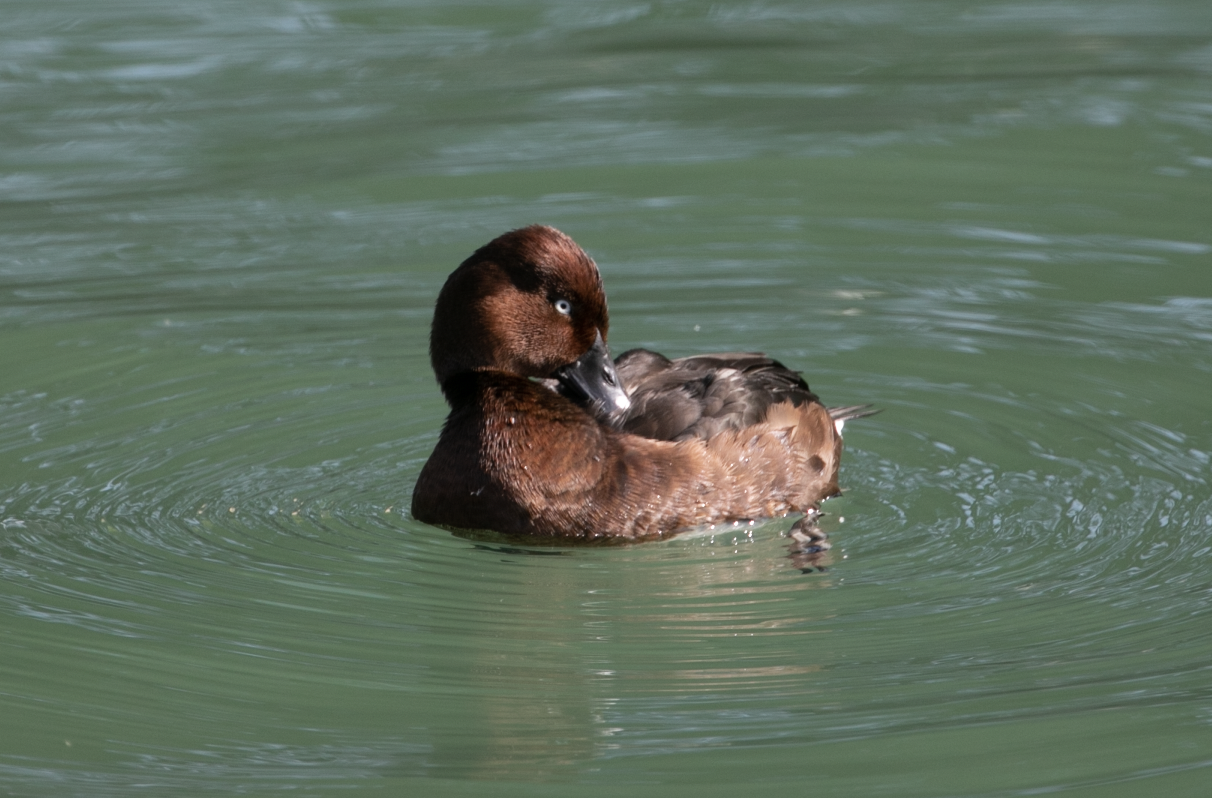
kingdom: Animalia
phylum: Chordata
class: Aves
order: Anseriformes
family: Anatidae
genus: Aythya
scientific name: Aythya nyroca
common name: Ferruginous duck
